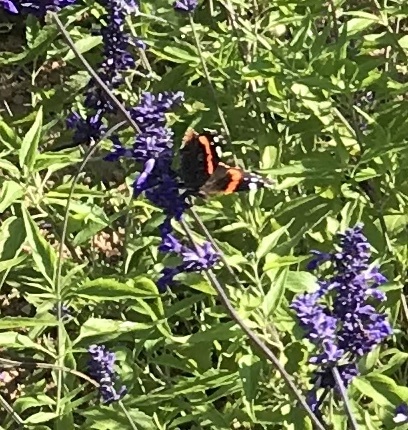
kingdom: Animalia
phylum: Arthropoda
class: Insecta
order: Lepidoptera
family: Nymphalidae
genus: Vanessa
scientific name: Vanessa atalanta
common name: Red admiral
